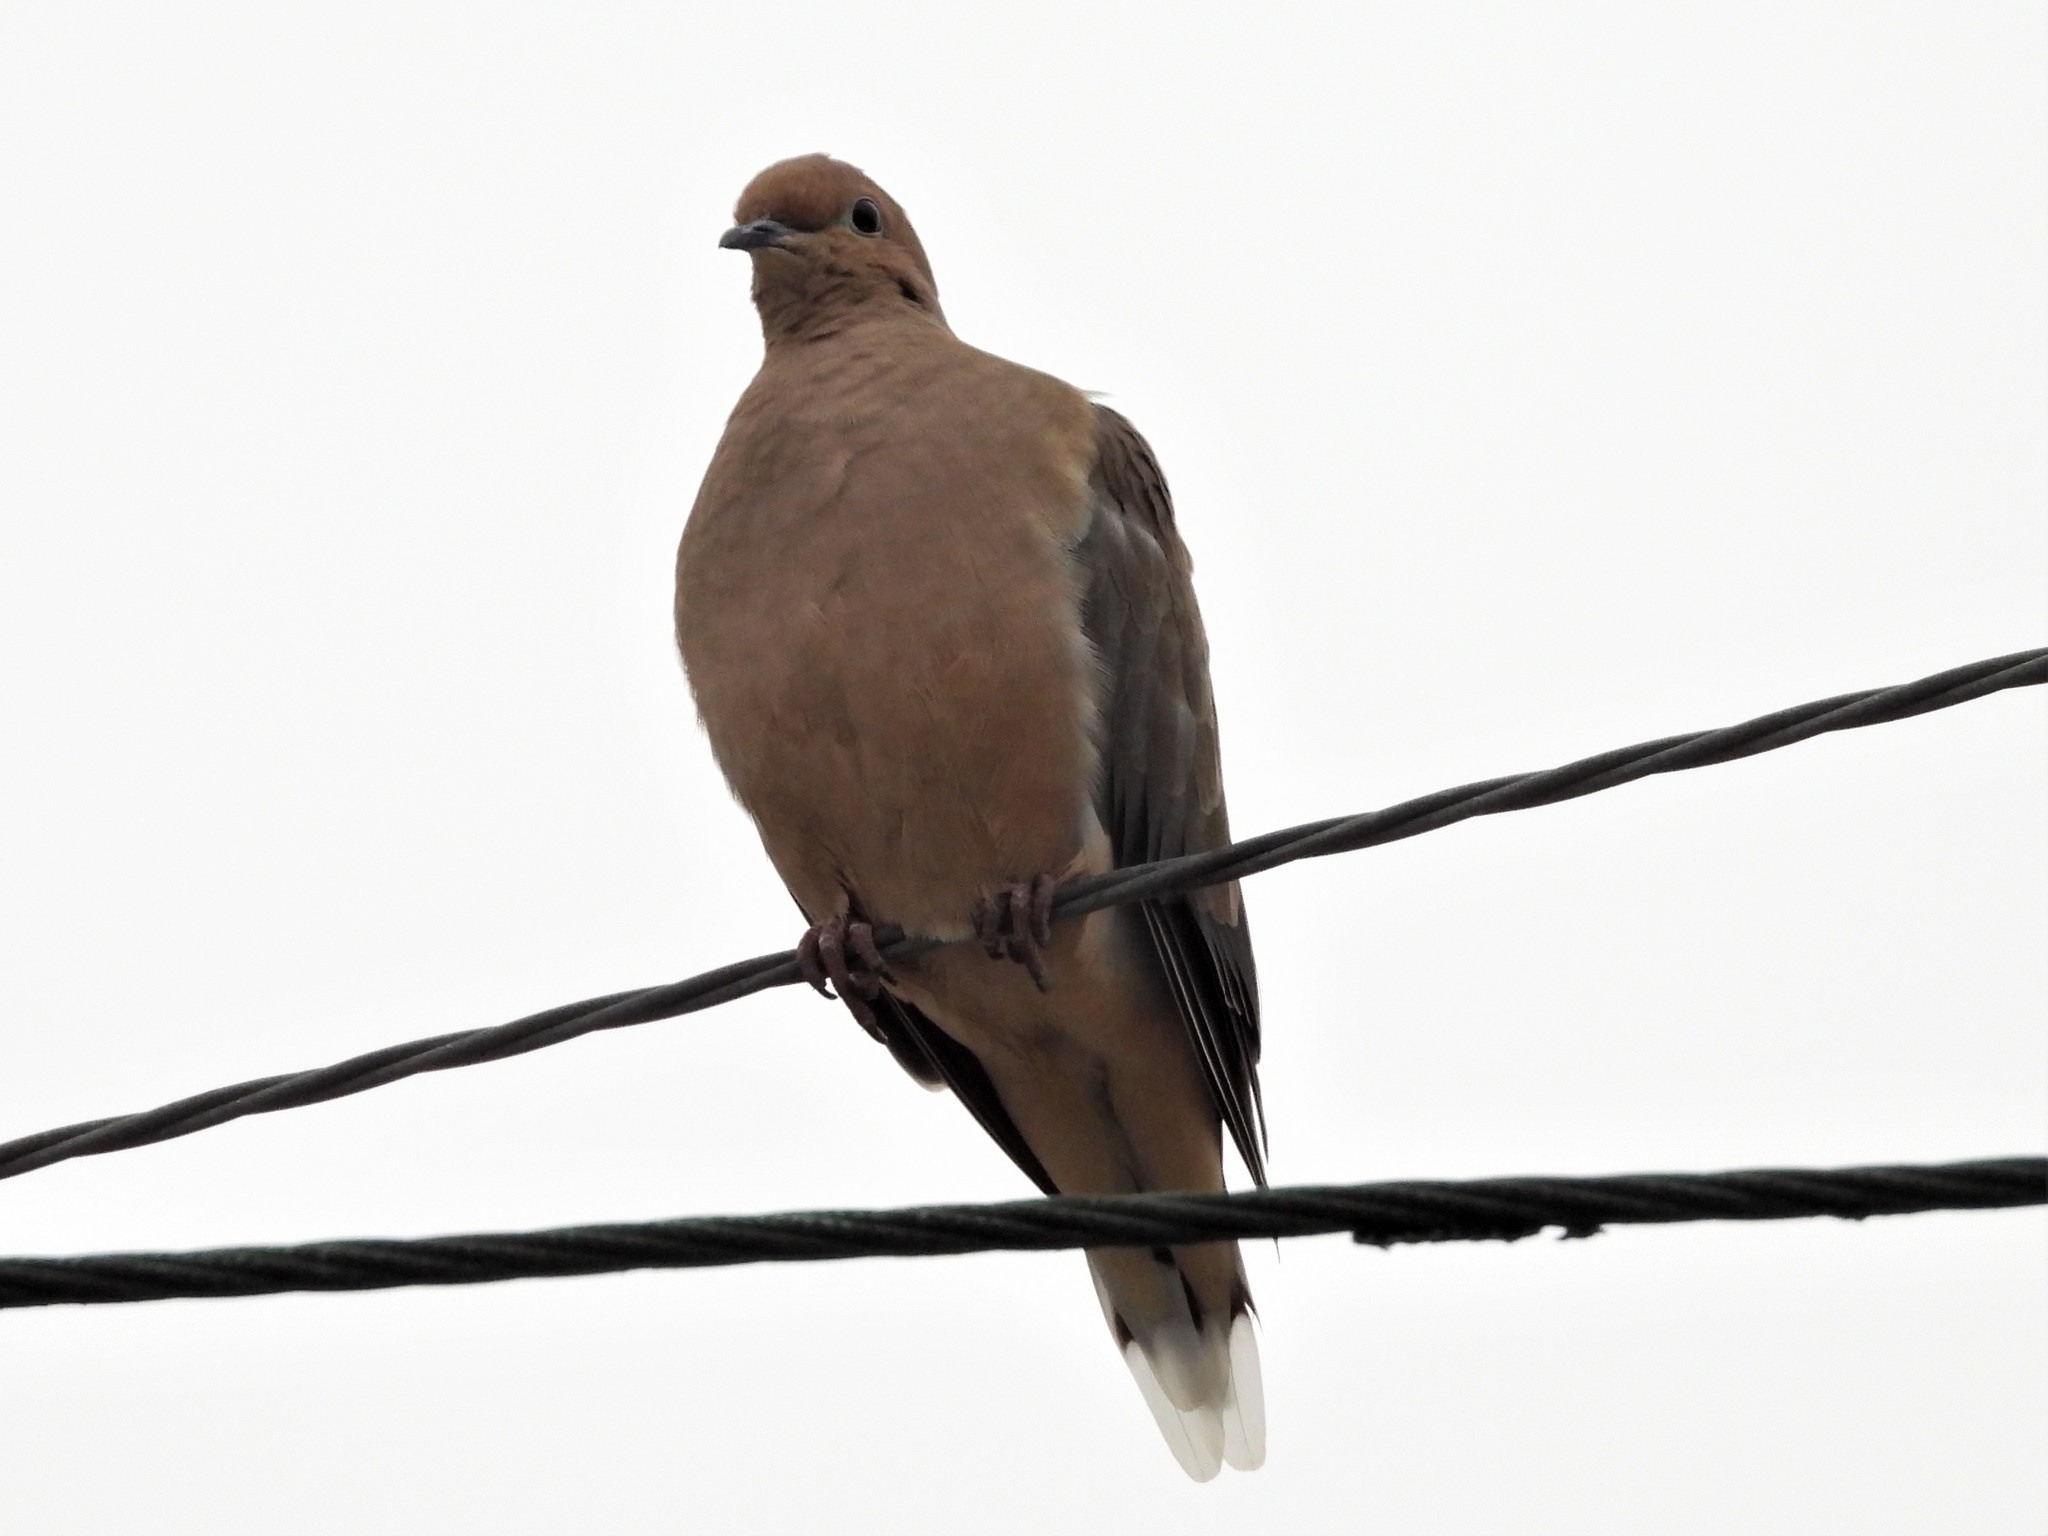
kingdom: Animalia
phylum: Chordata
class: Aves
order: Columbiformes
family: Columbidae
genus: Zenaida
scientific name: Zenaida macroura
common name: Mourning dove
